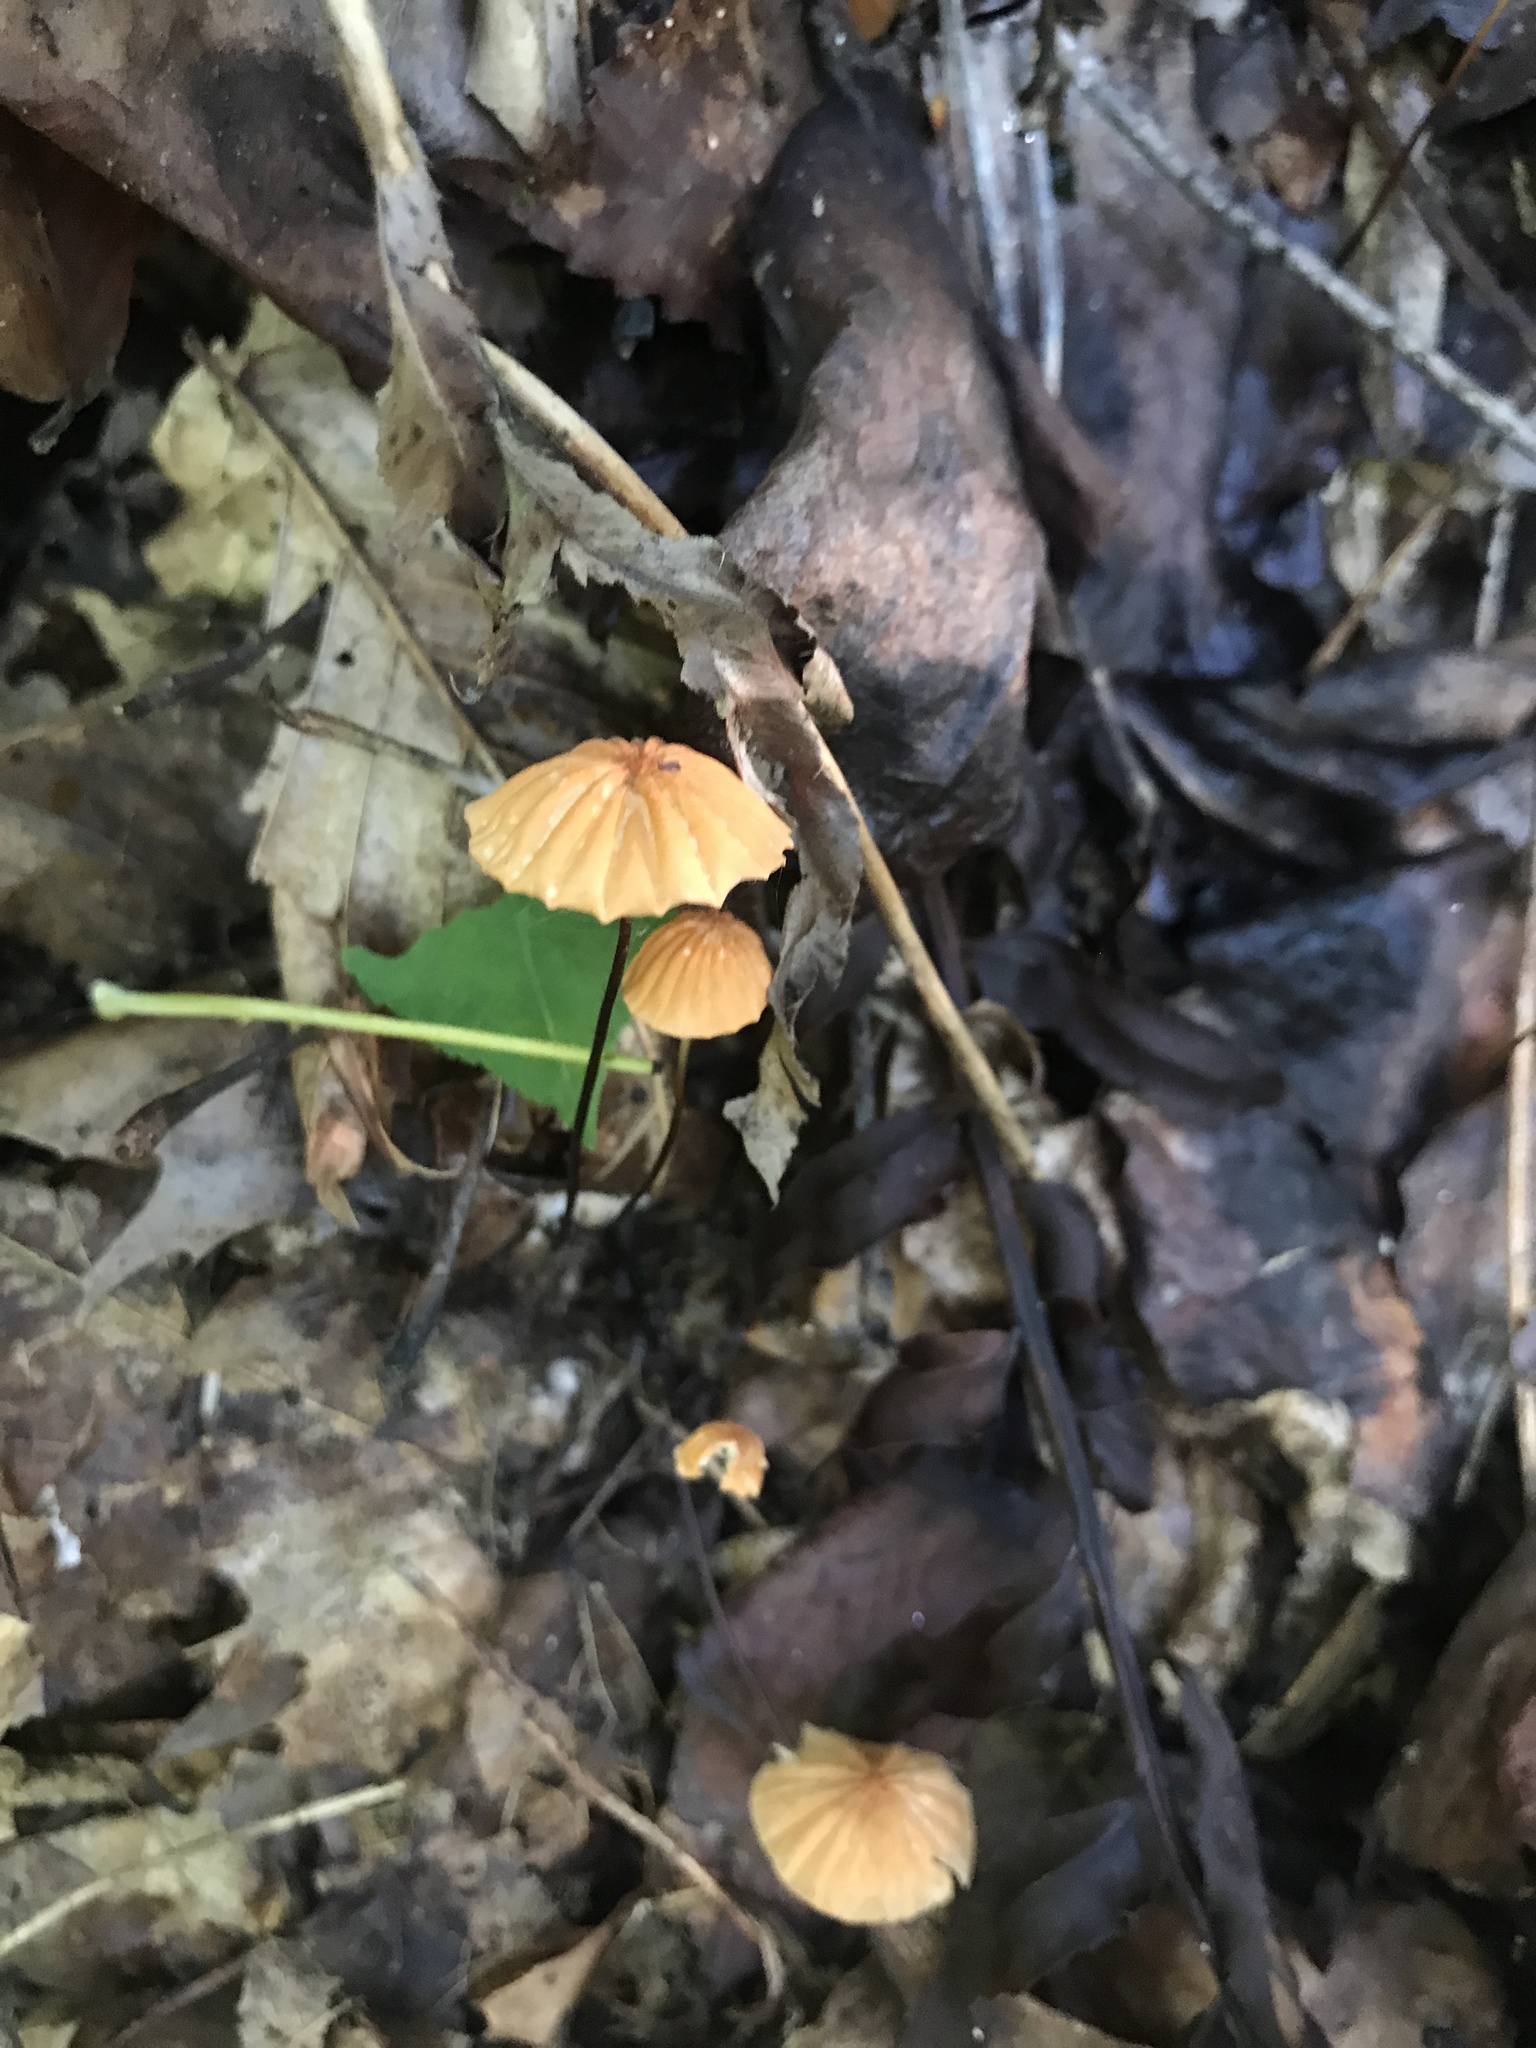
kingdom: Fungi
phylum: Basidiomycota
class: Agaricomycetes
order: Agaricales
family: Marasmiaceae
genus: Marasmius
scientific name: Marasmius siccus
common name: Orange pinwheel
